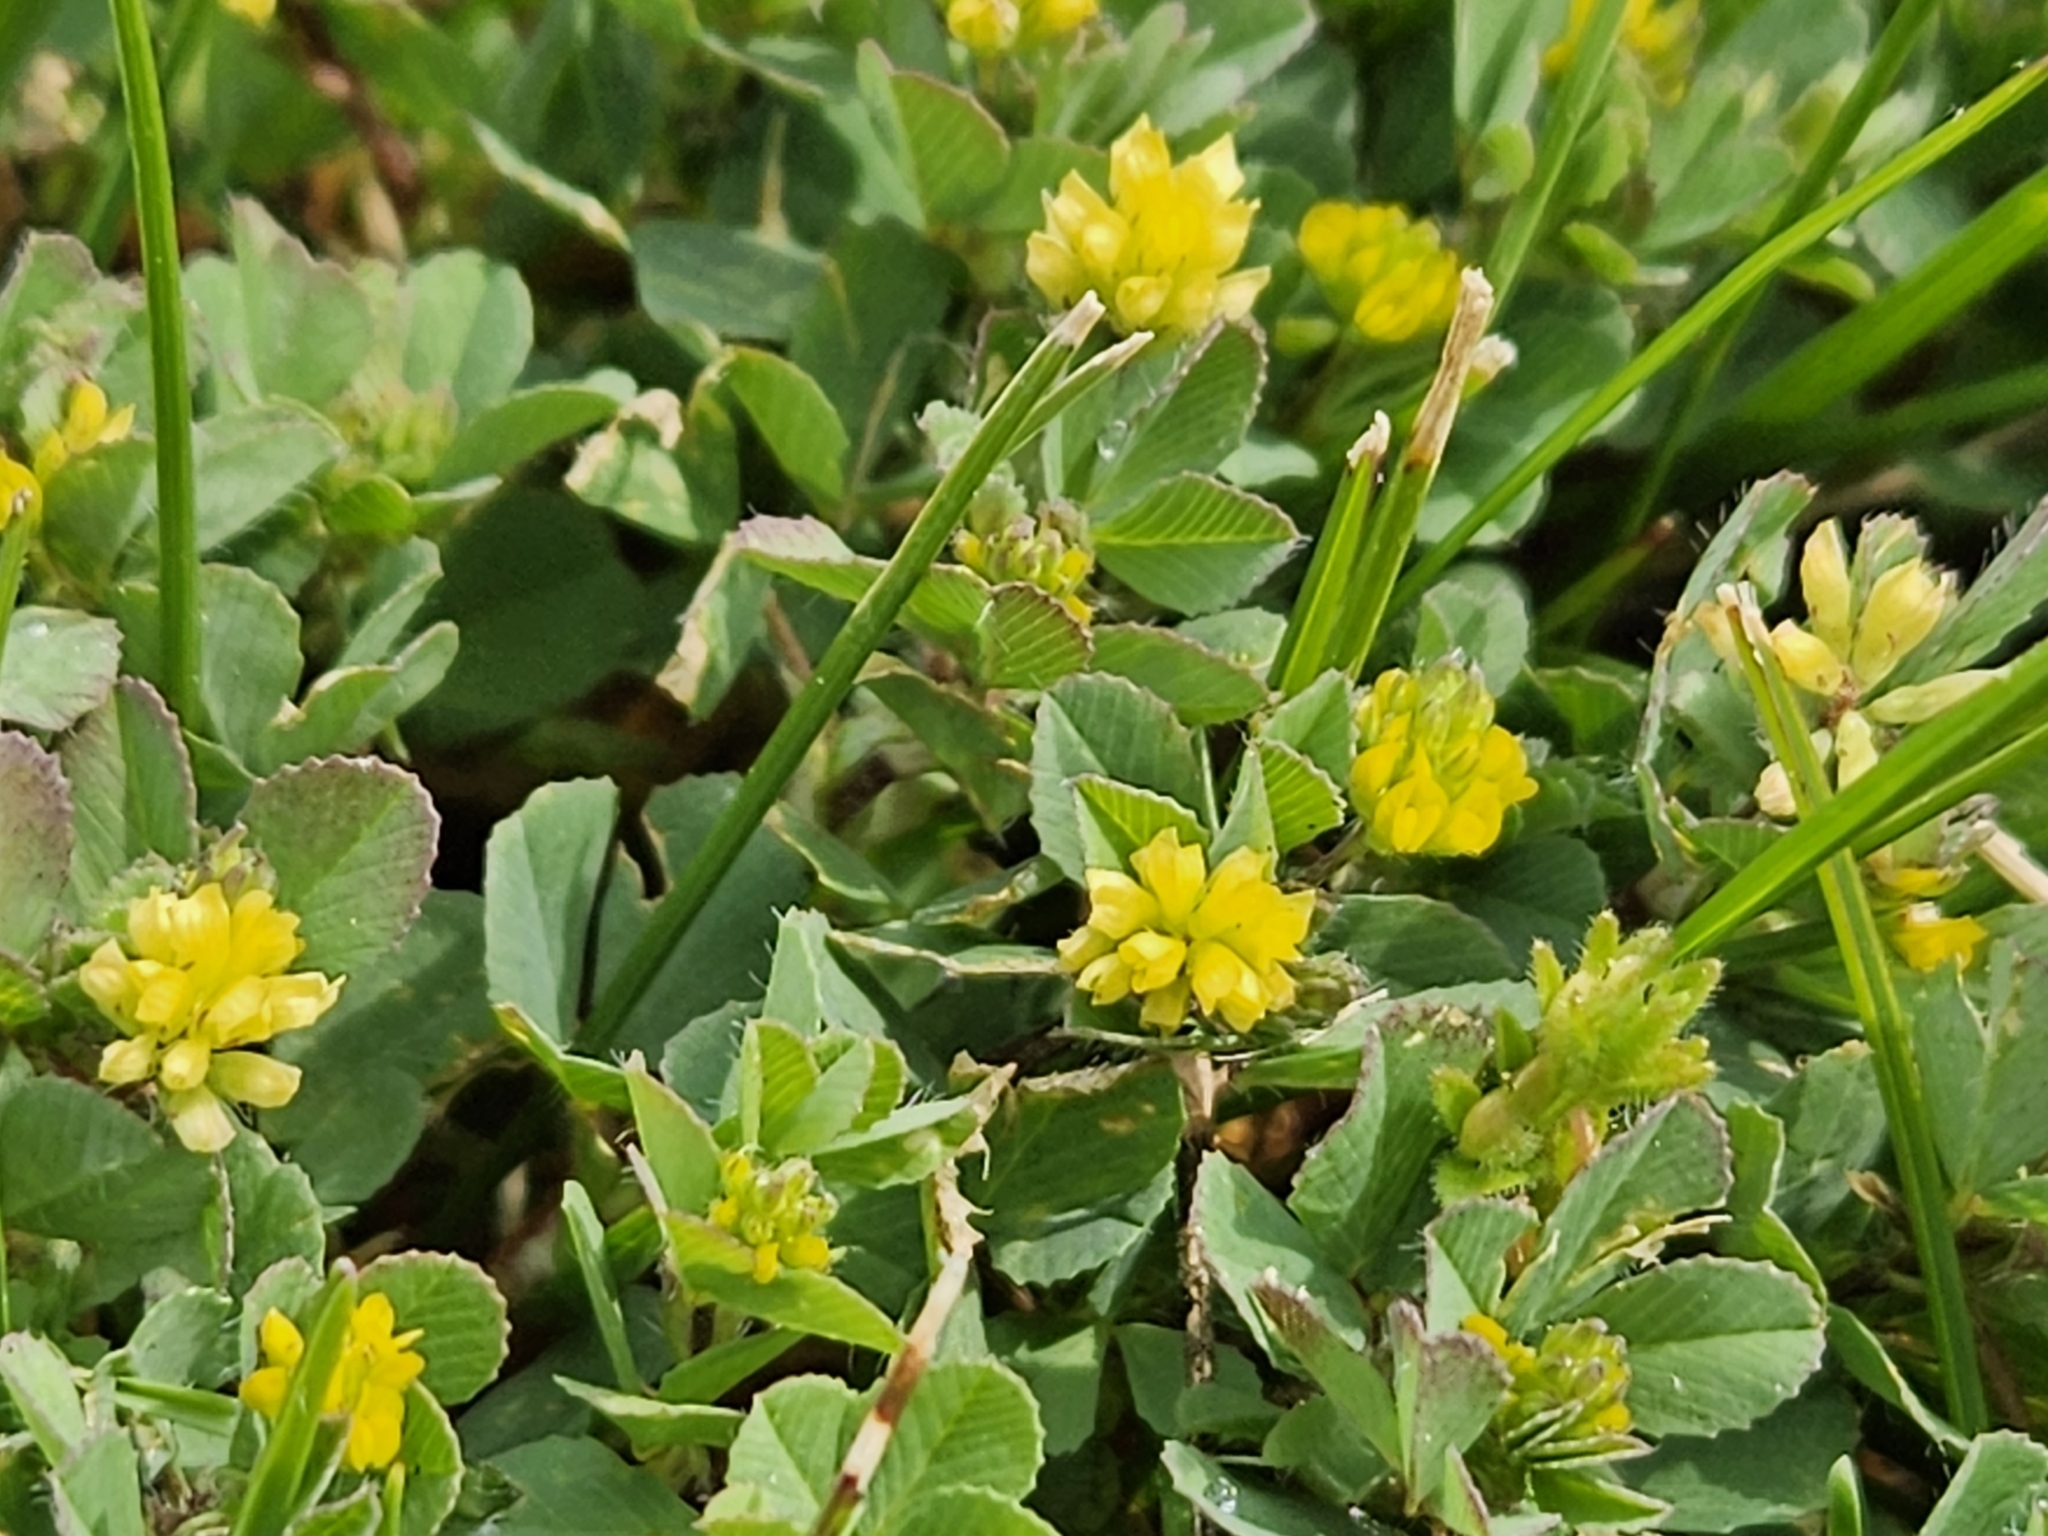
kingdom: Plantae
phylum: Tracheophyta
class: Magnoliopsida
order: Fabales
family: Fabaceae
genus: Trifolium
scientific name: Trifolium dubium
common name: Suckling clover
